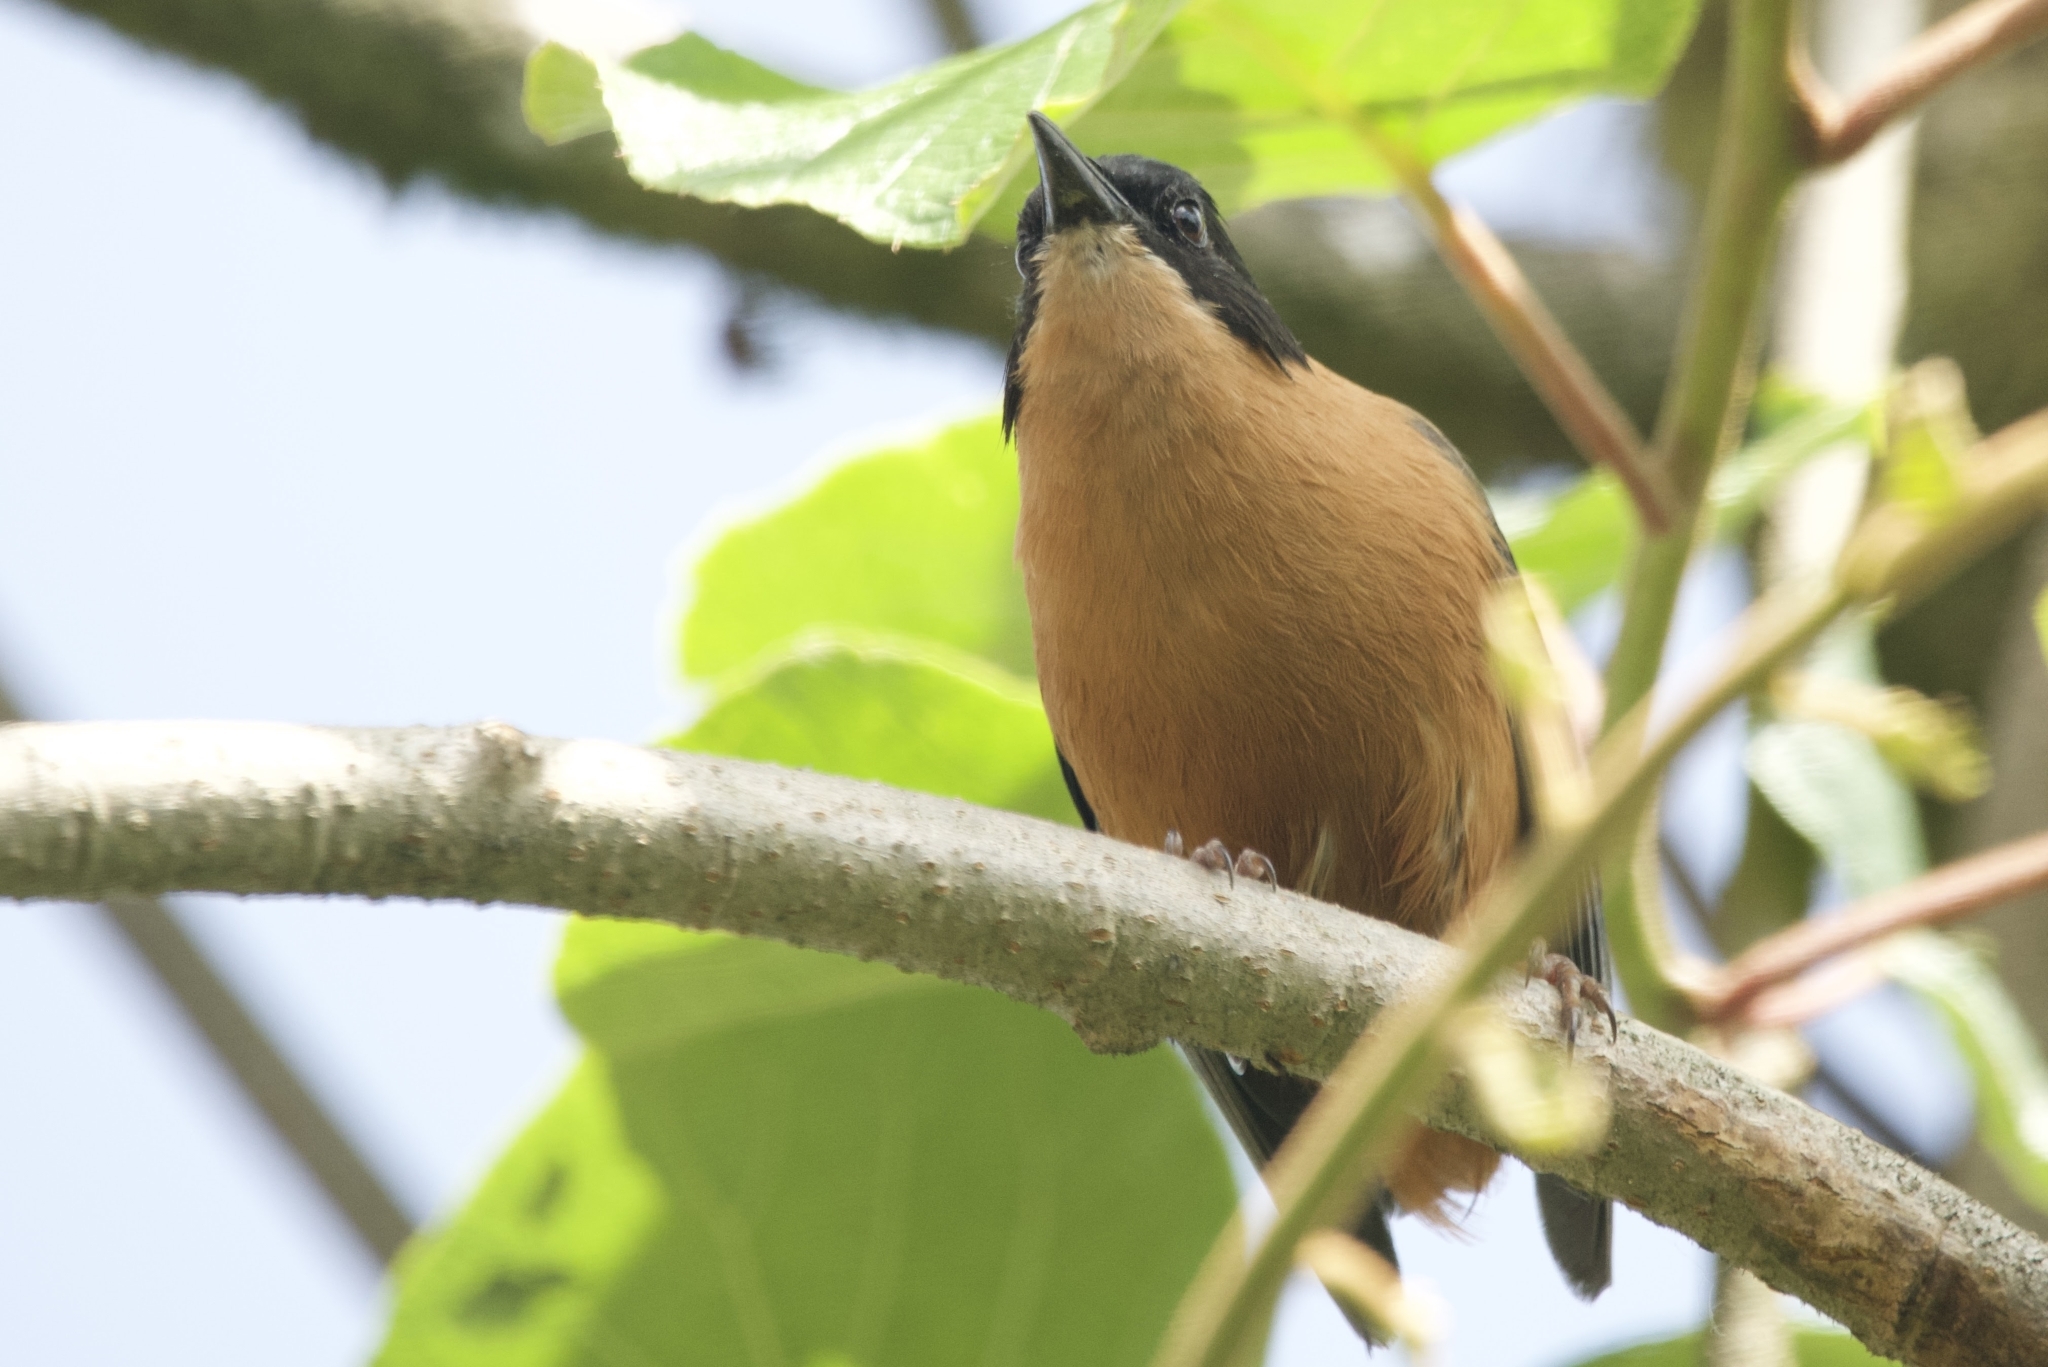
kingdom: Animalia
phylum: Chordata
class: Aves
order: Passeriformes
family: Leiothrichidae
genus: Heterophasia
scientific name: Heterophasia capistrata
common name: Rufous sibia
